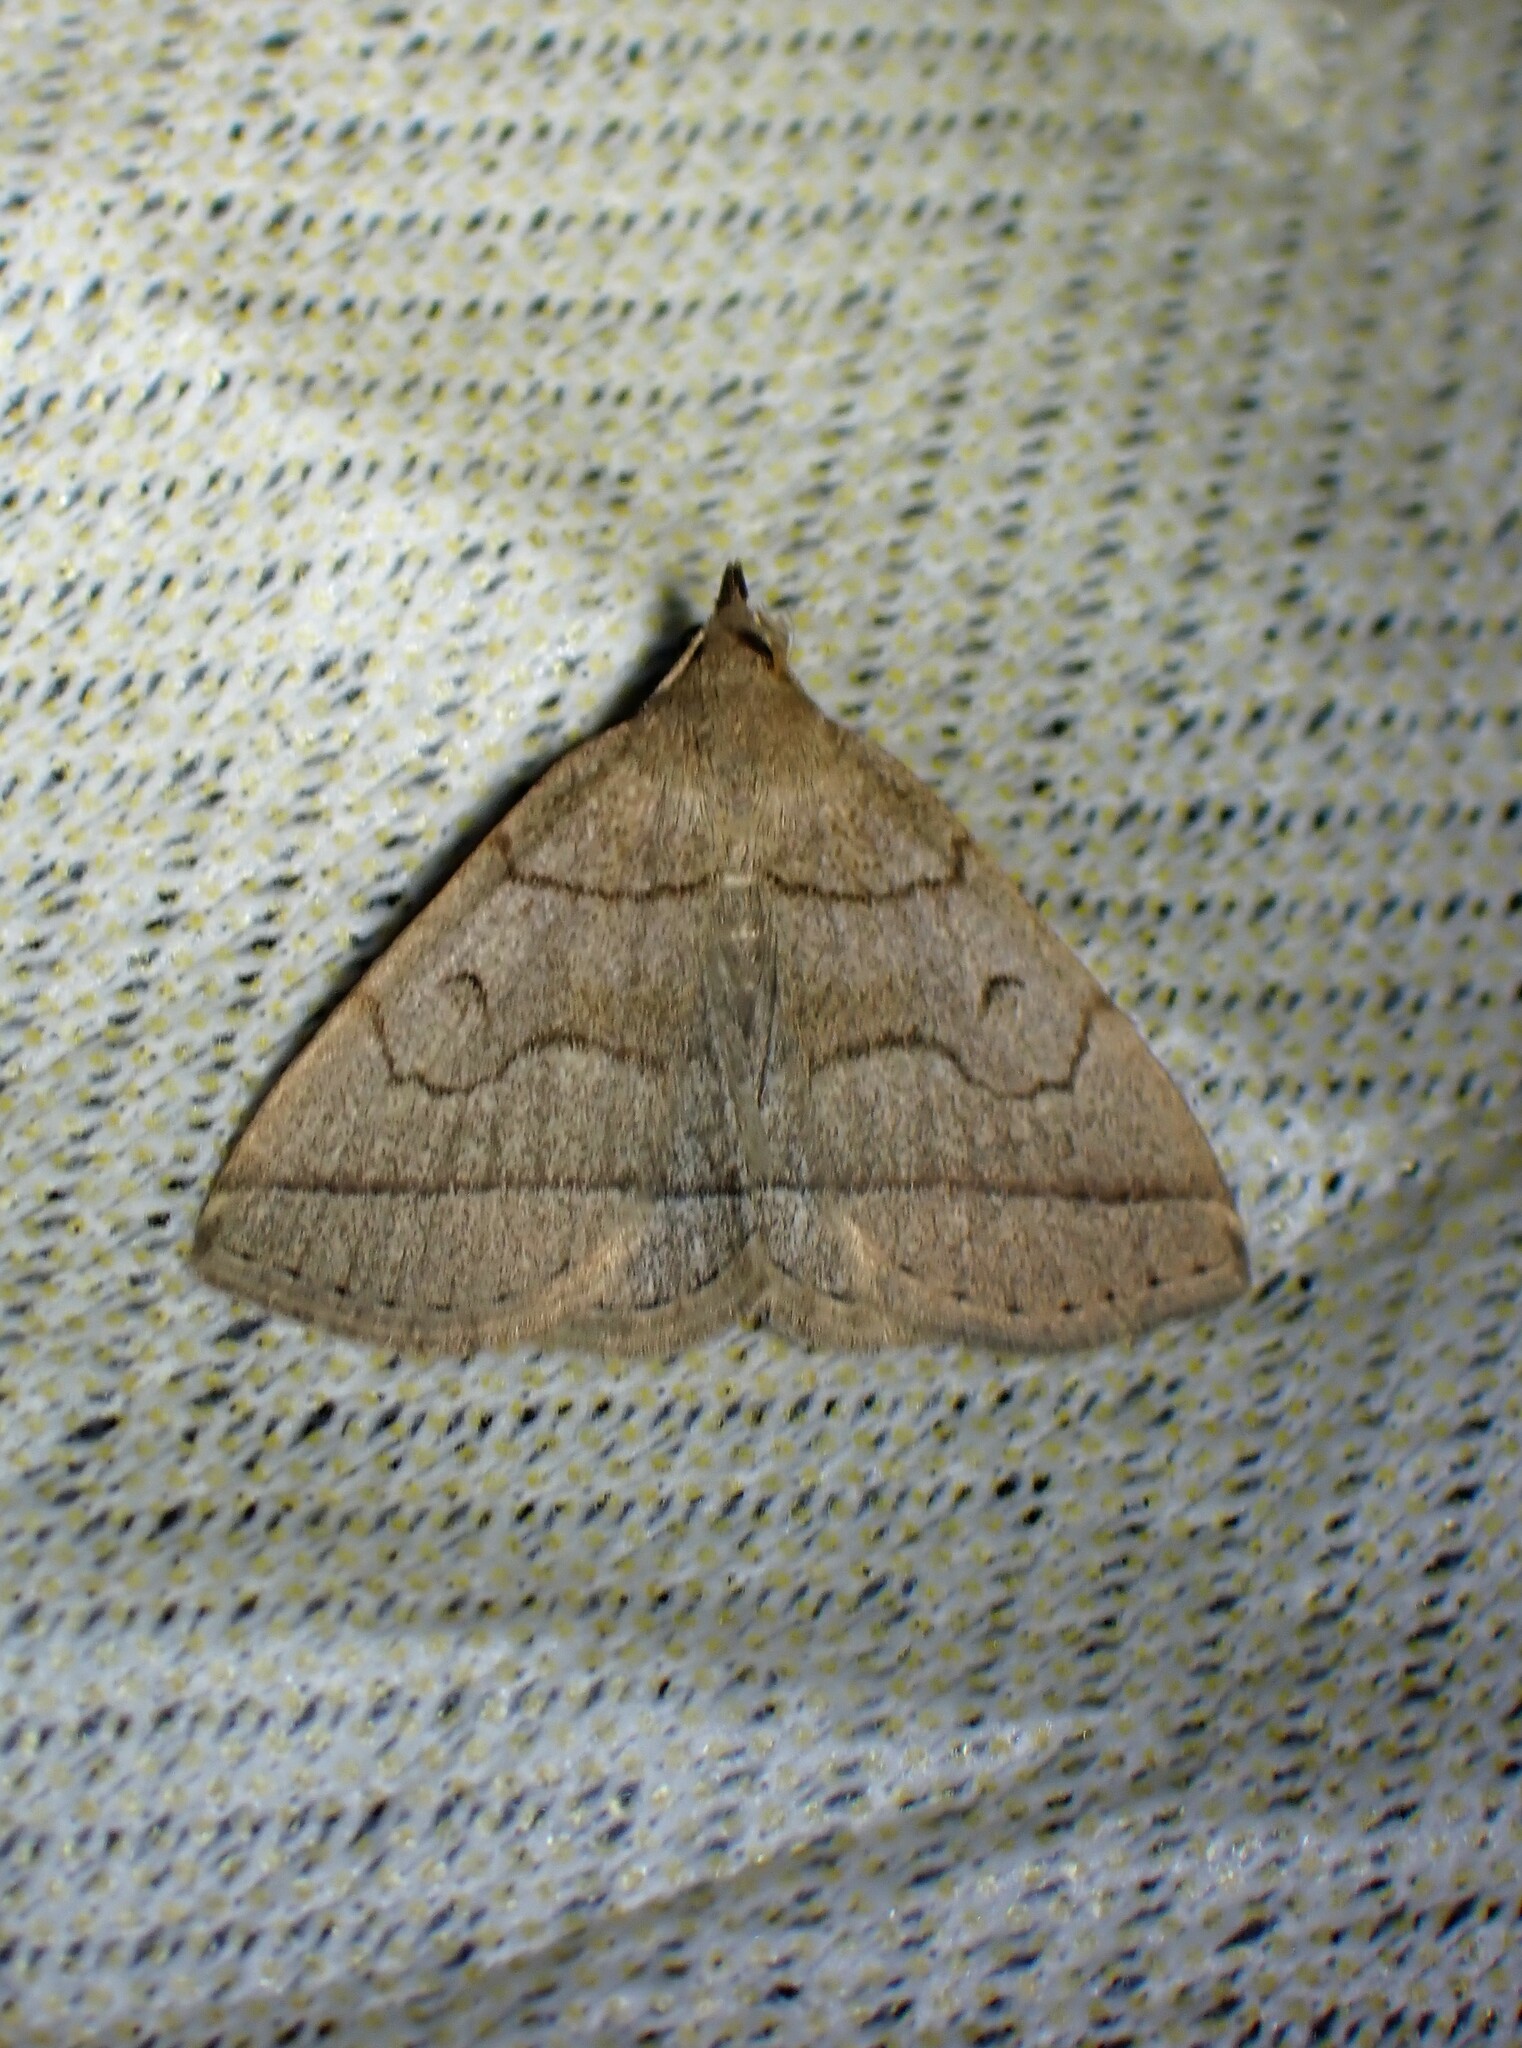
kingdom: Animalia
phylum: Arthropoda
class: Insecta
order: Lepidoptera
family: Erebidae
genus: Zanclognatha
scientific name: Zanclognatha cruralis
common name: Early fan-foot
